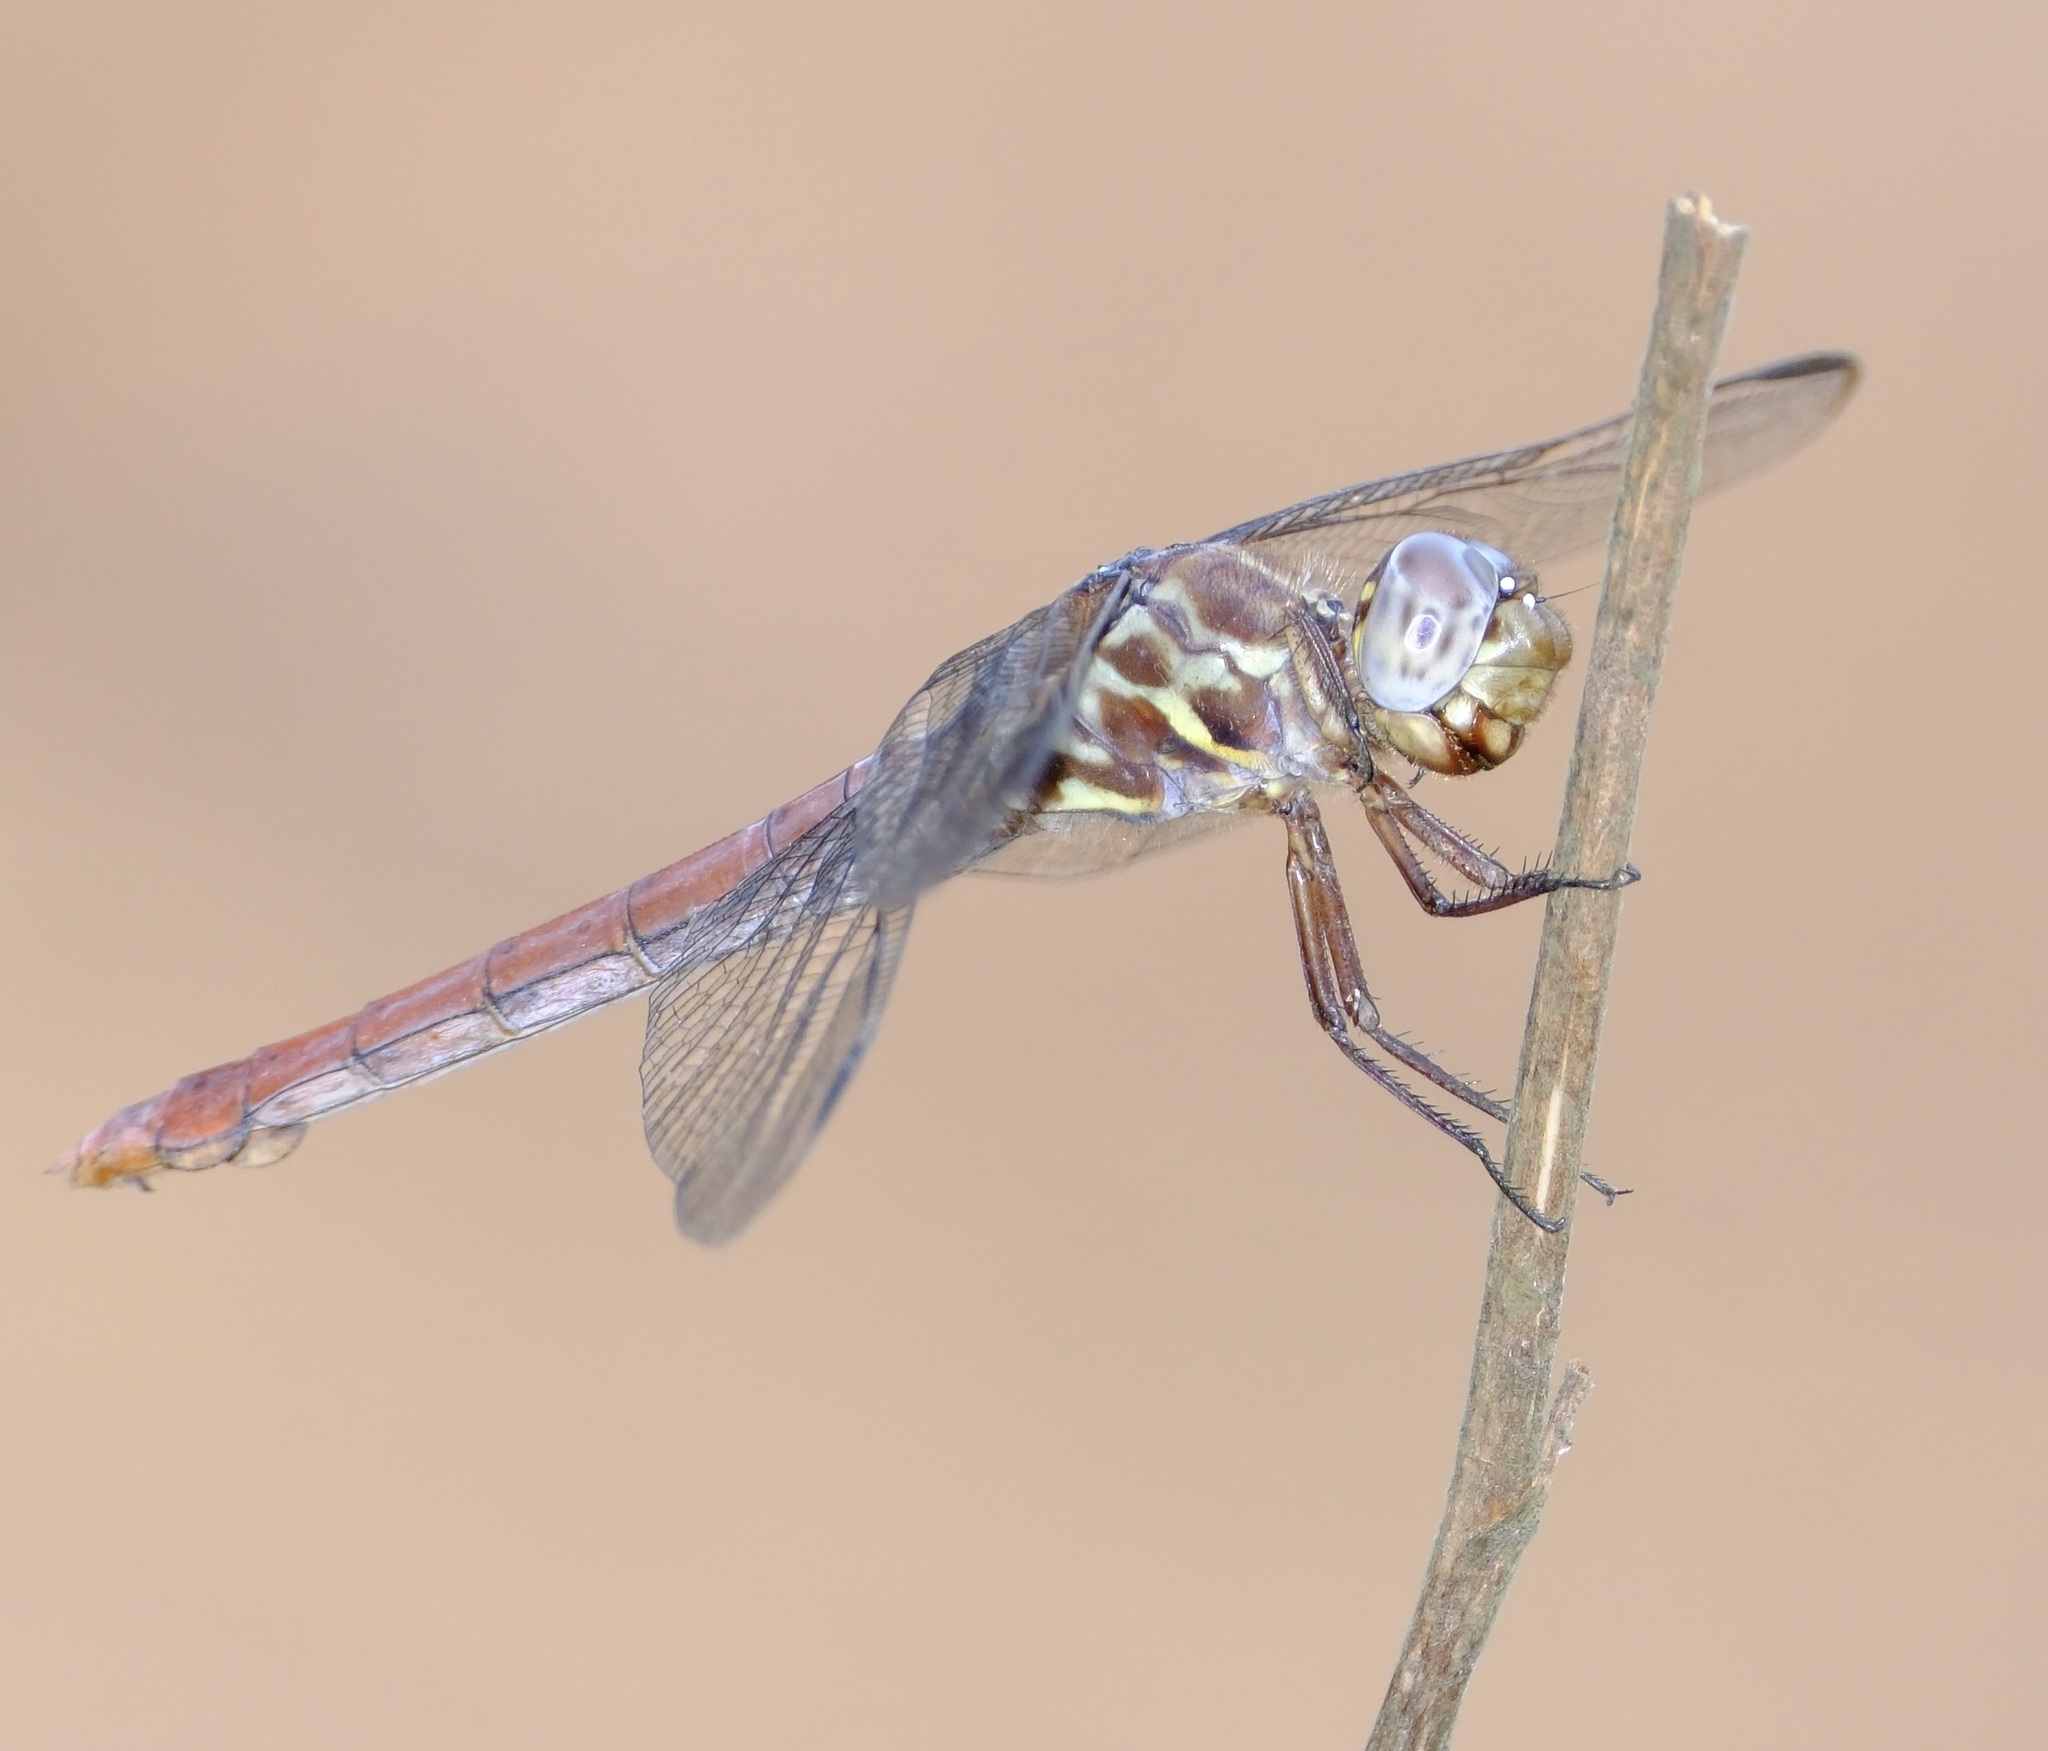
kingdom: Animalia
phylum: Arthropoda
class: Insecta
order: Odonata
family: Libellulidae
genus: Orthemis
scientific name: Orthemis ferruginea
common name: Roseate skimmer
